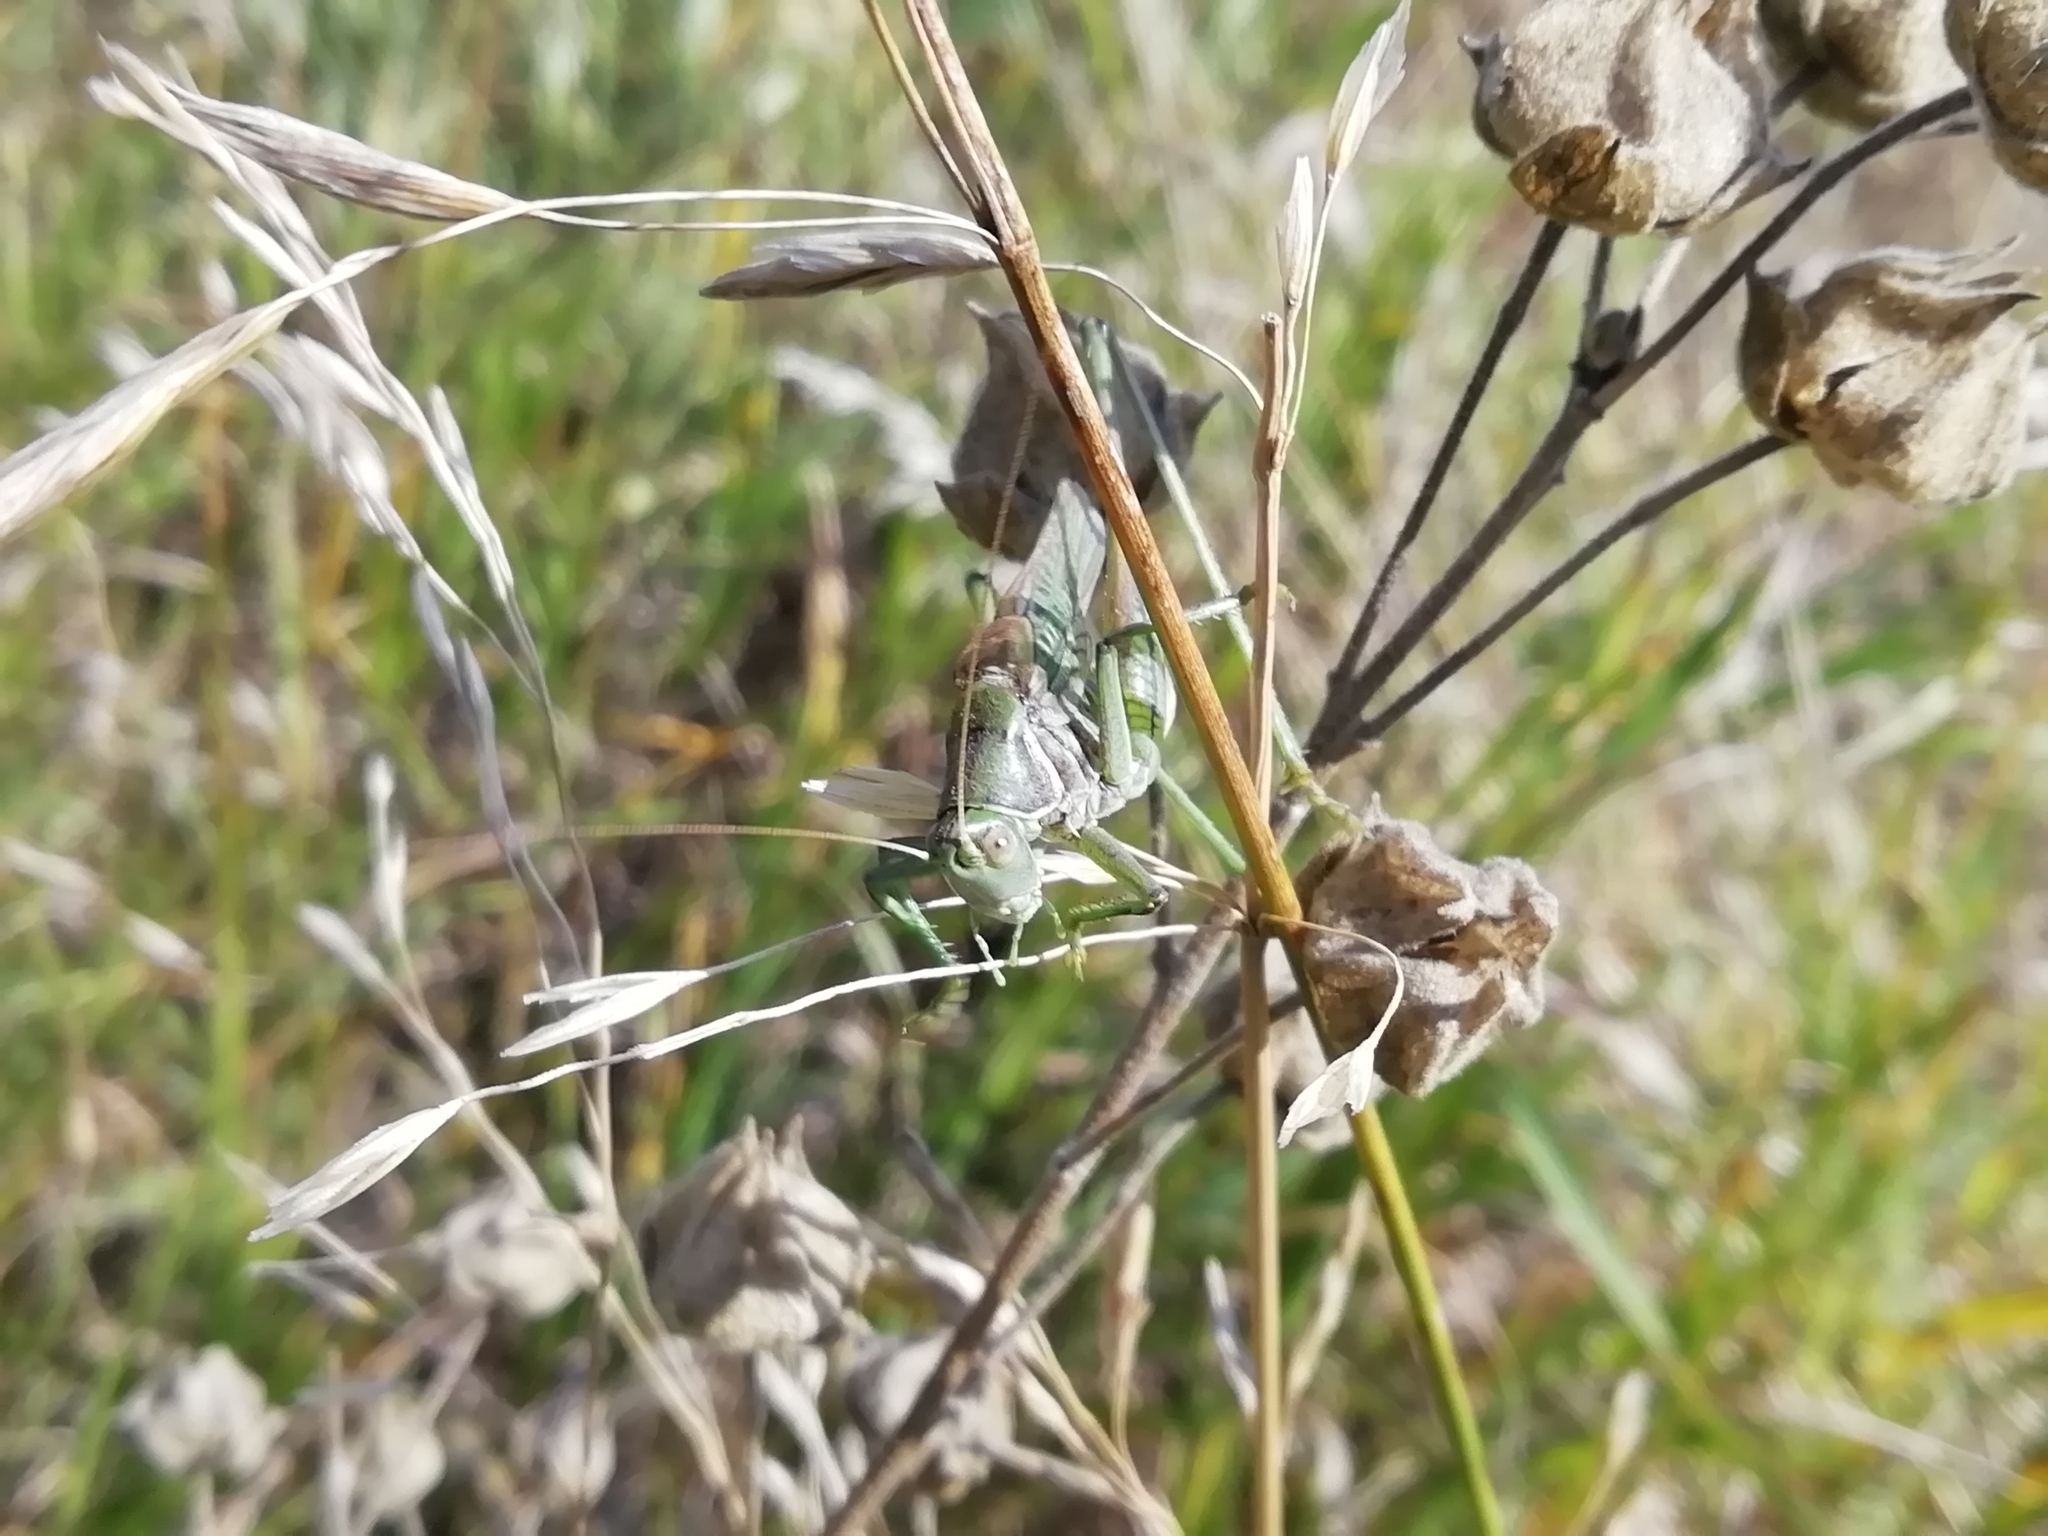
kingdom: Animalia
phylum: Arthropoda
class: Insecta
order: Orthoptera
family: Tettigoniidae
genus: Gampsocleis
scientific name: Gampsocleis glabra
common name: Heath bushcricket
